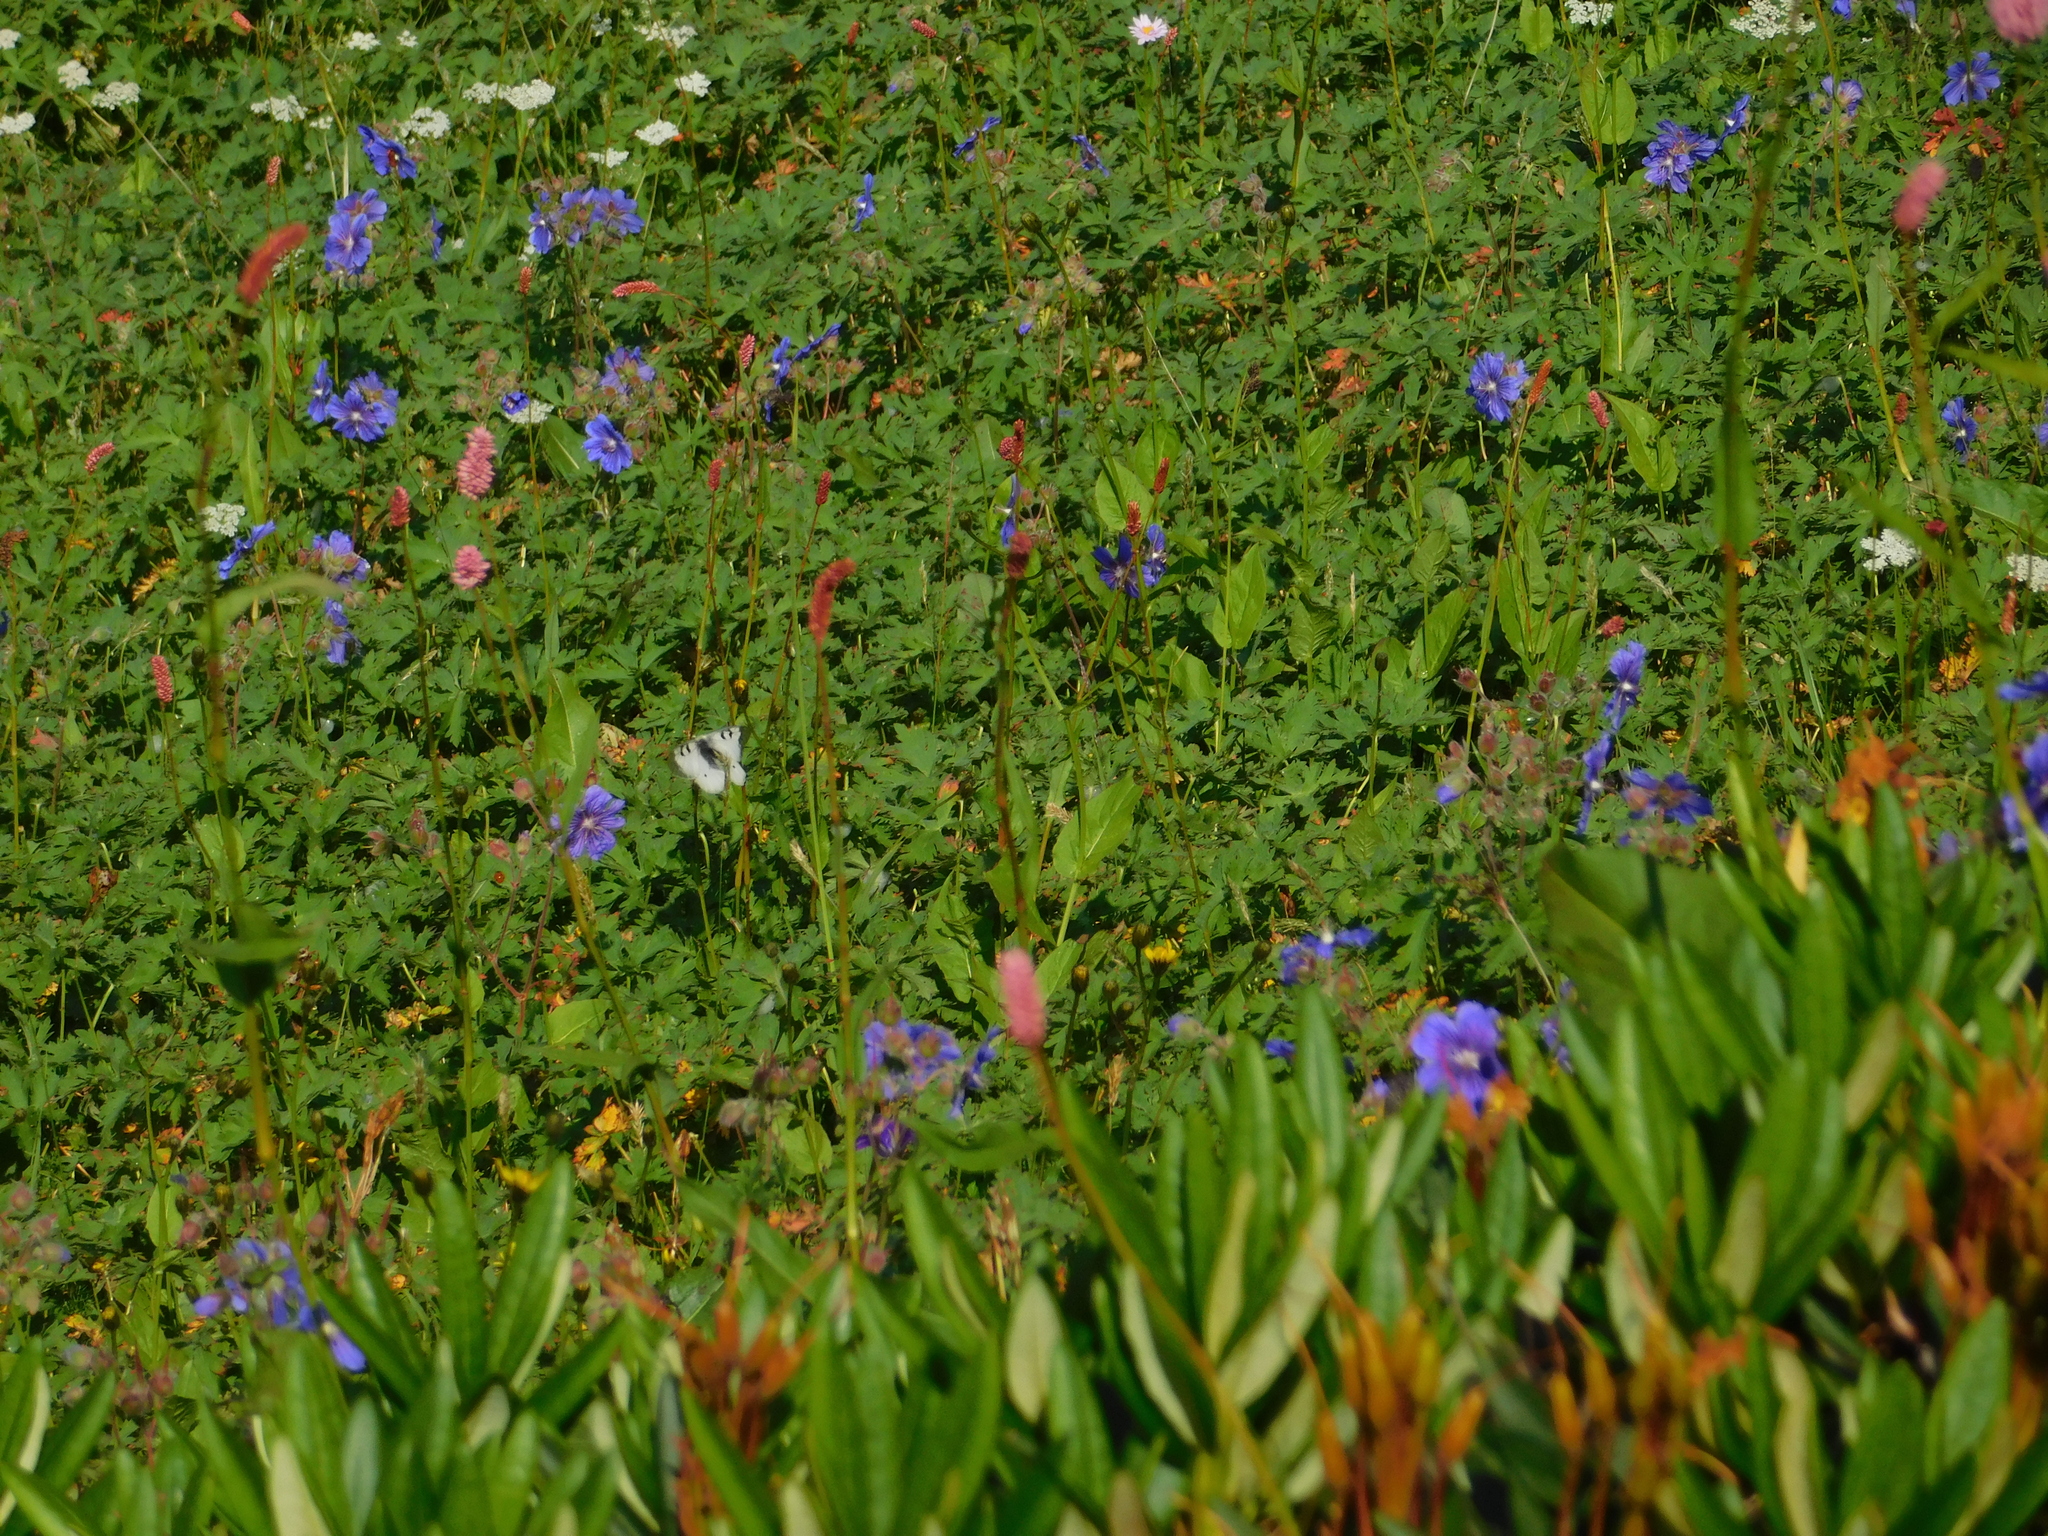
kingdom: Animalia
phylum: Arthropoda
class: Insecta
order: Lepidoptera
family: Papilionidae
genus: Parnassius
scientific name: Parnassius nordmanni
